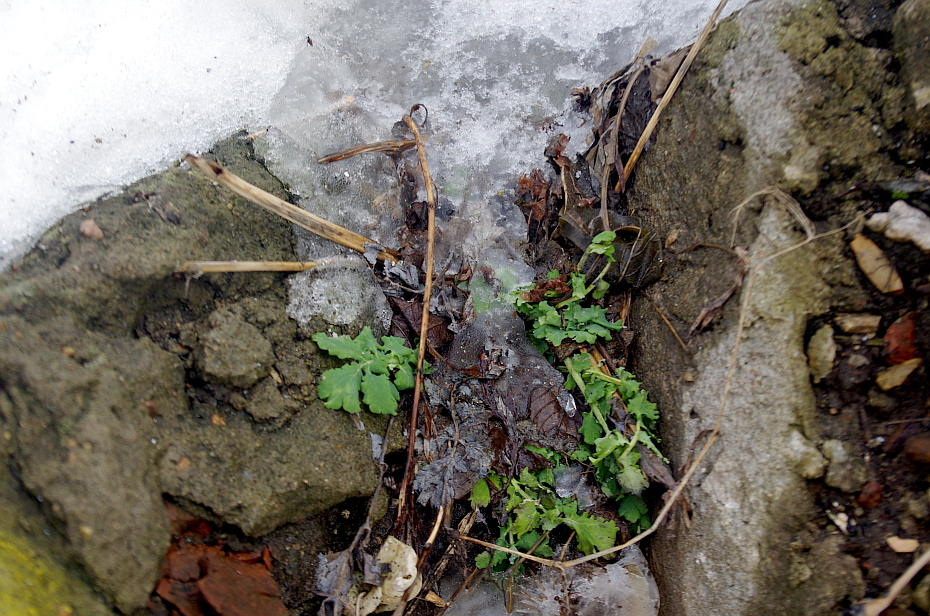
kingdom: Plantae
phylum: Tracheophyta
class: Magnoliopsida
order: Ranunculales
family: Papaveraceae
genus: Chelidonium
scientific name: Chelidonium majus
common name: Greater celandine
